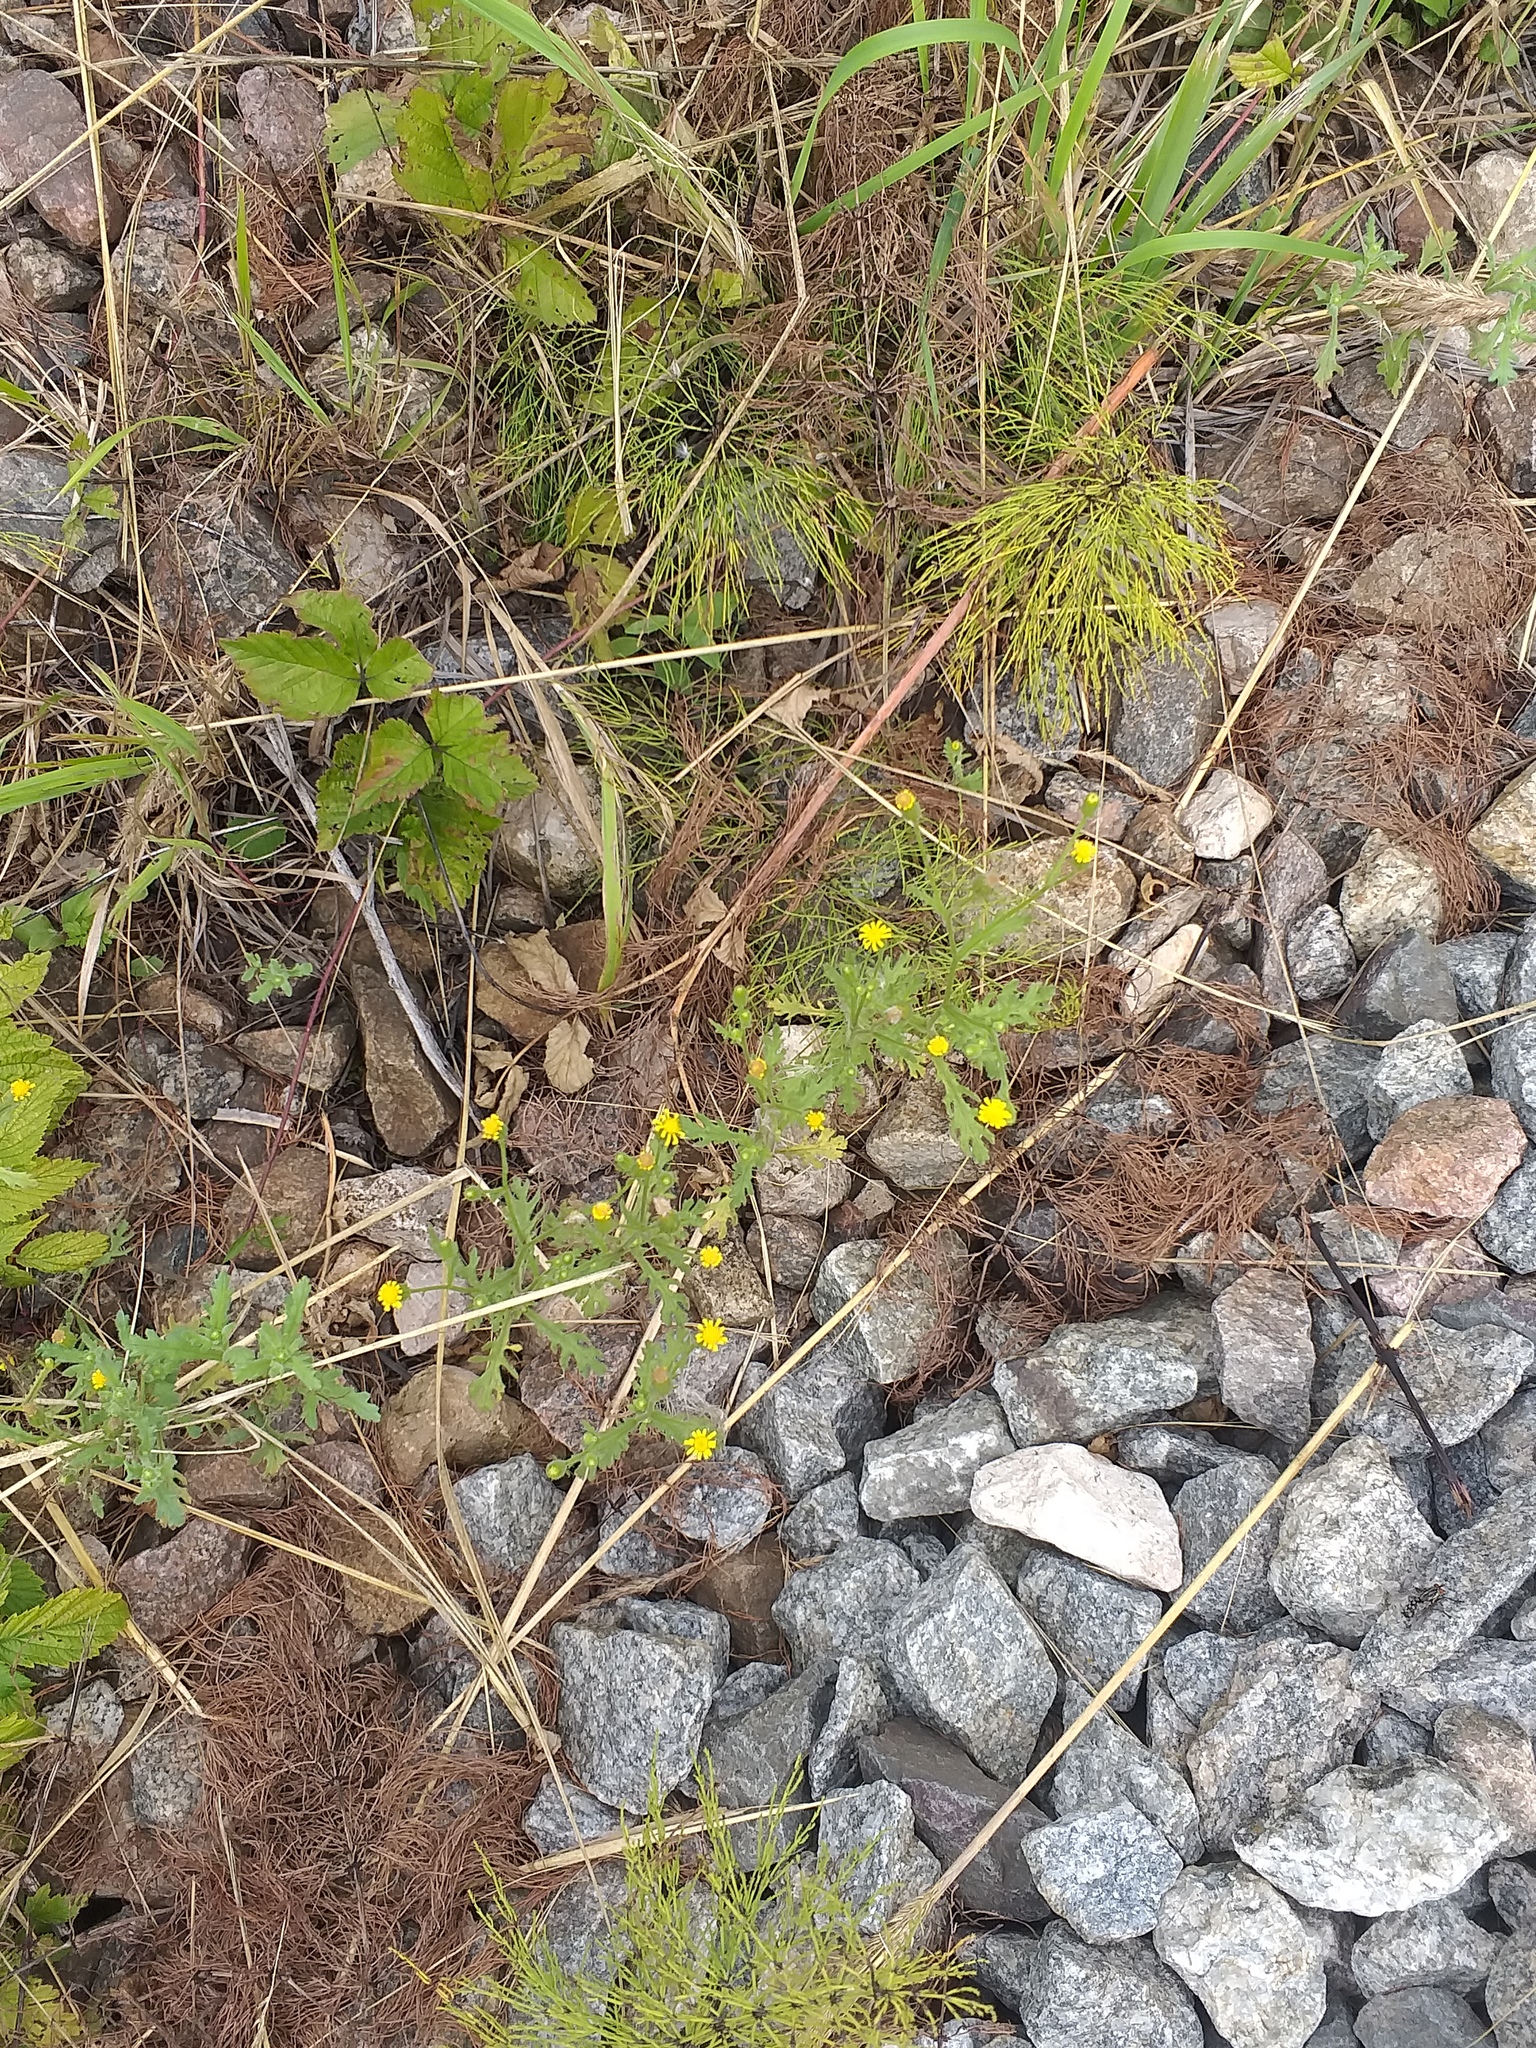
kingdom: Plantae
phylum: Tracheophyta
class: Magnoliopsida
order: Asterales
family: Asteraceae
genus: Senecio
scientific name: Senecio viscosus
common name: Sticky groundsel
